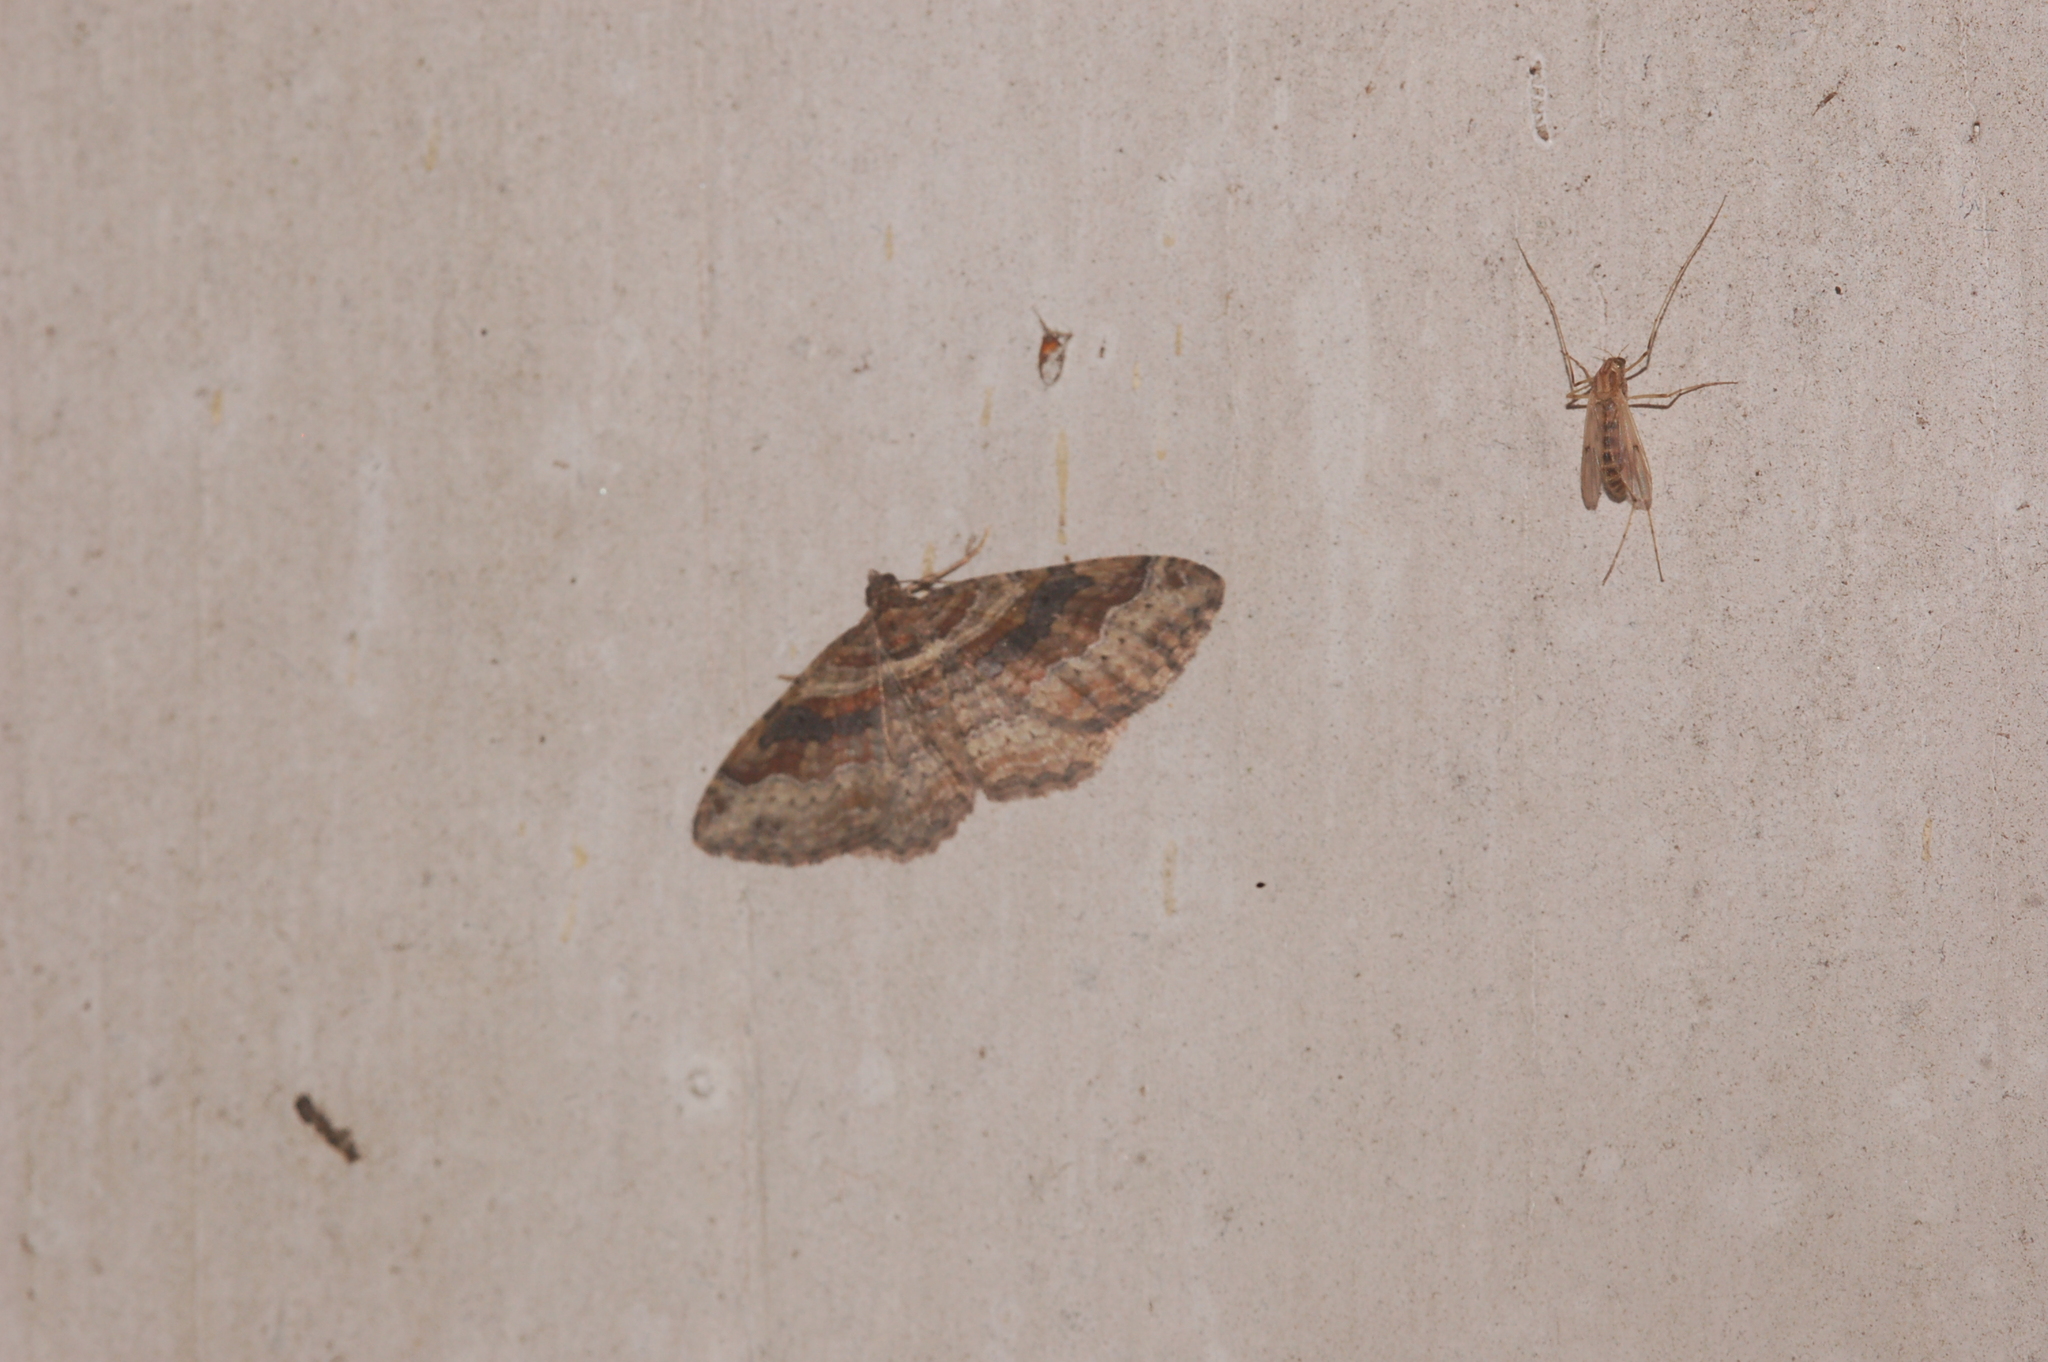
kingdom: Animalia
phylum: Arthropoda
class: Insecta
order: Lepidoptera
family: Geometridae
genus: Costaconvexa
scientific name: Costaconvexa centrostrigaria
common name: Bent-line carpet
